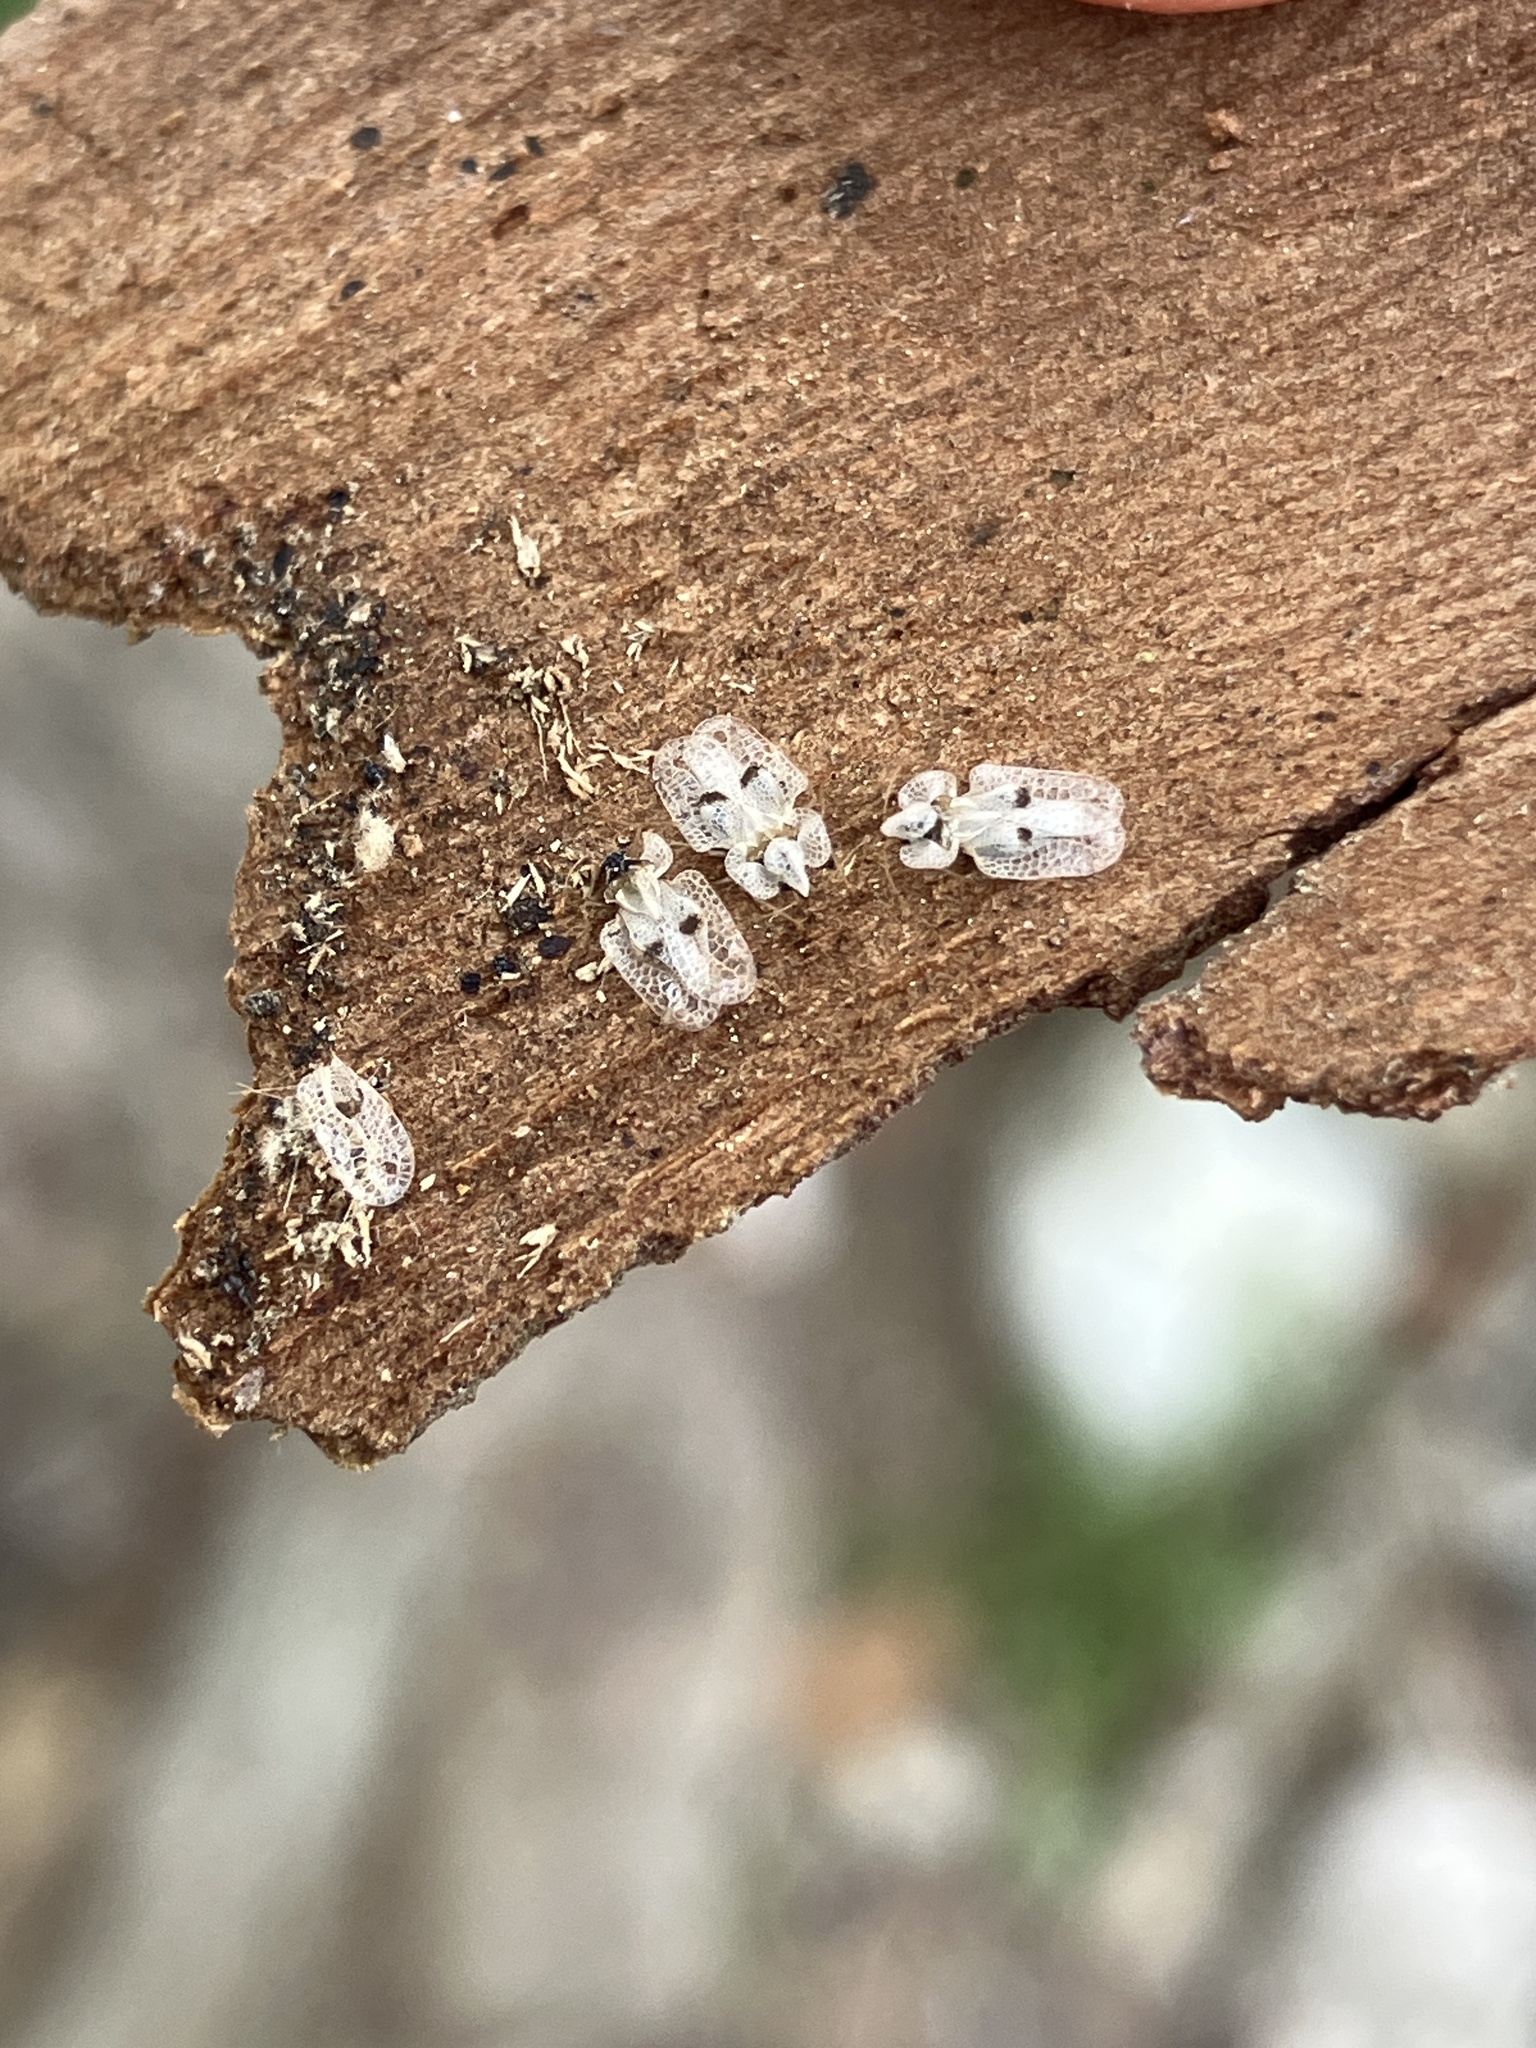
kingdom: Animalia
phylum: Arthropoda
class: Insecta
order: Hemiptera
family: Tingidae
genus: Corythucha
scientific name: Corythucha ciliata
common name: Sycamore lace bug
